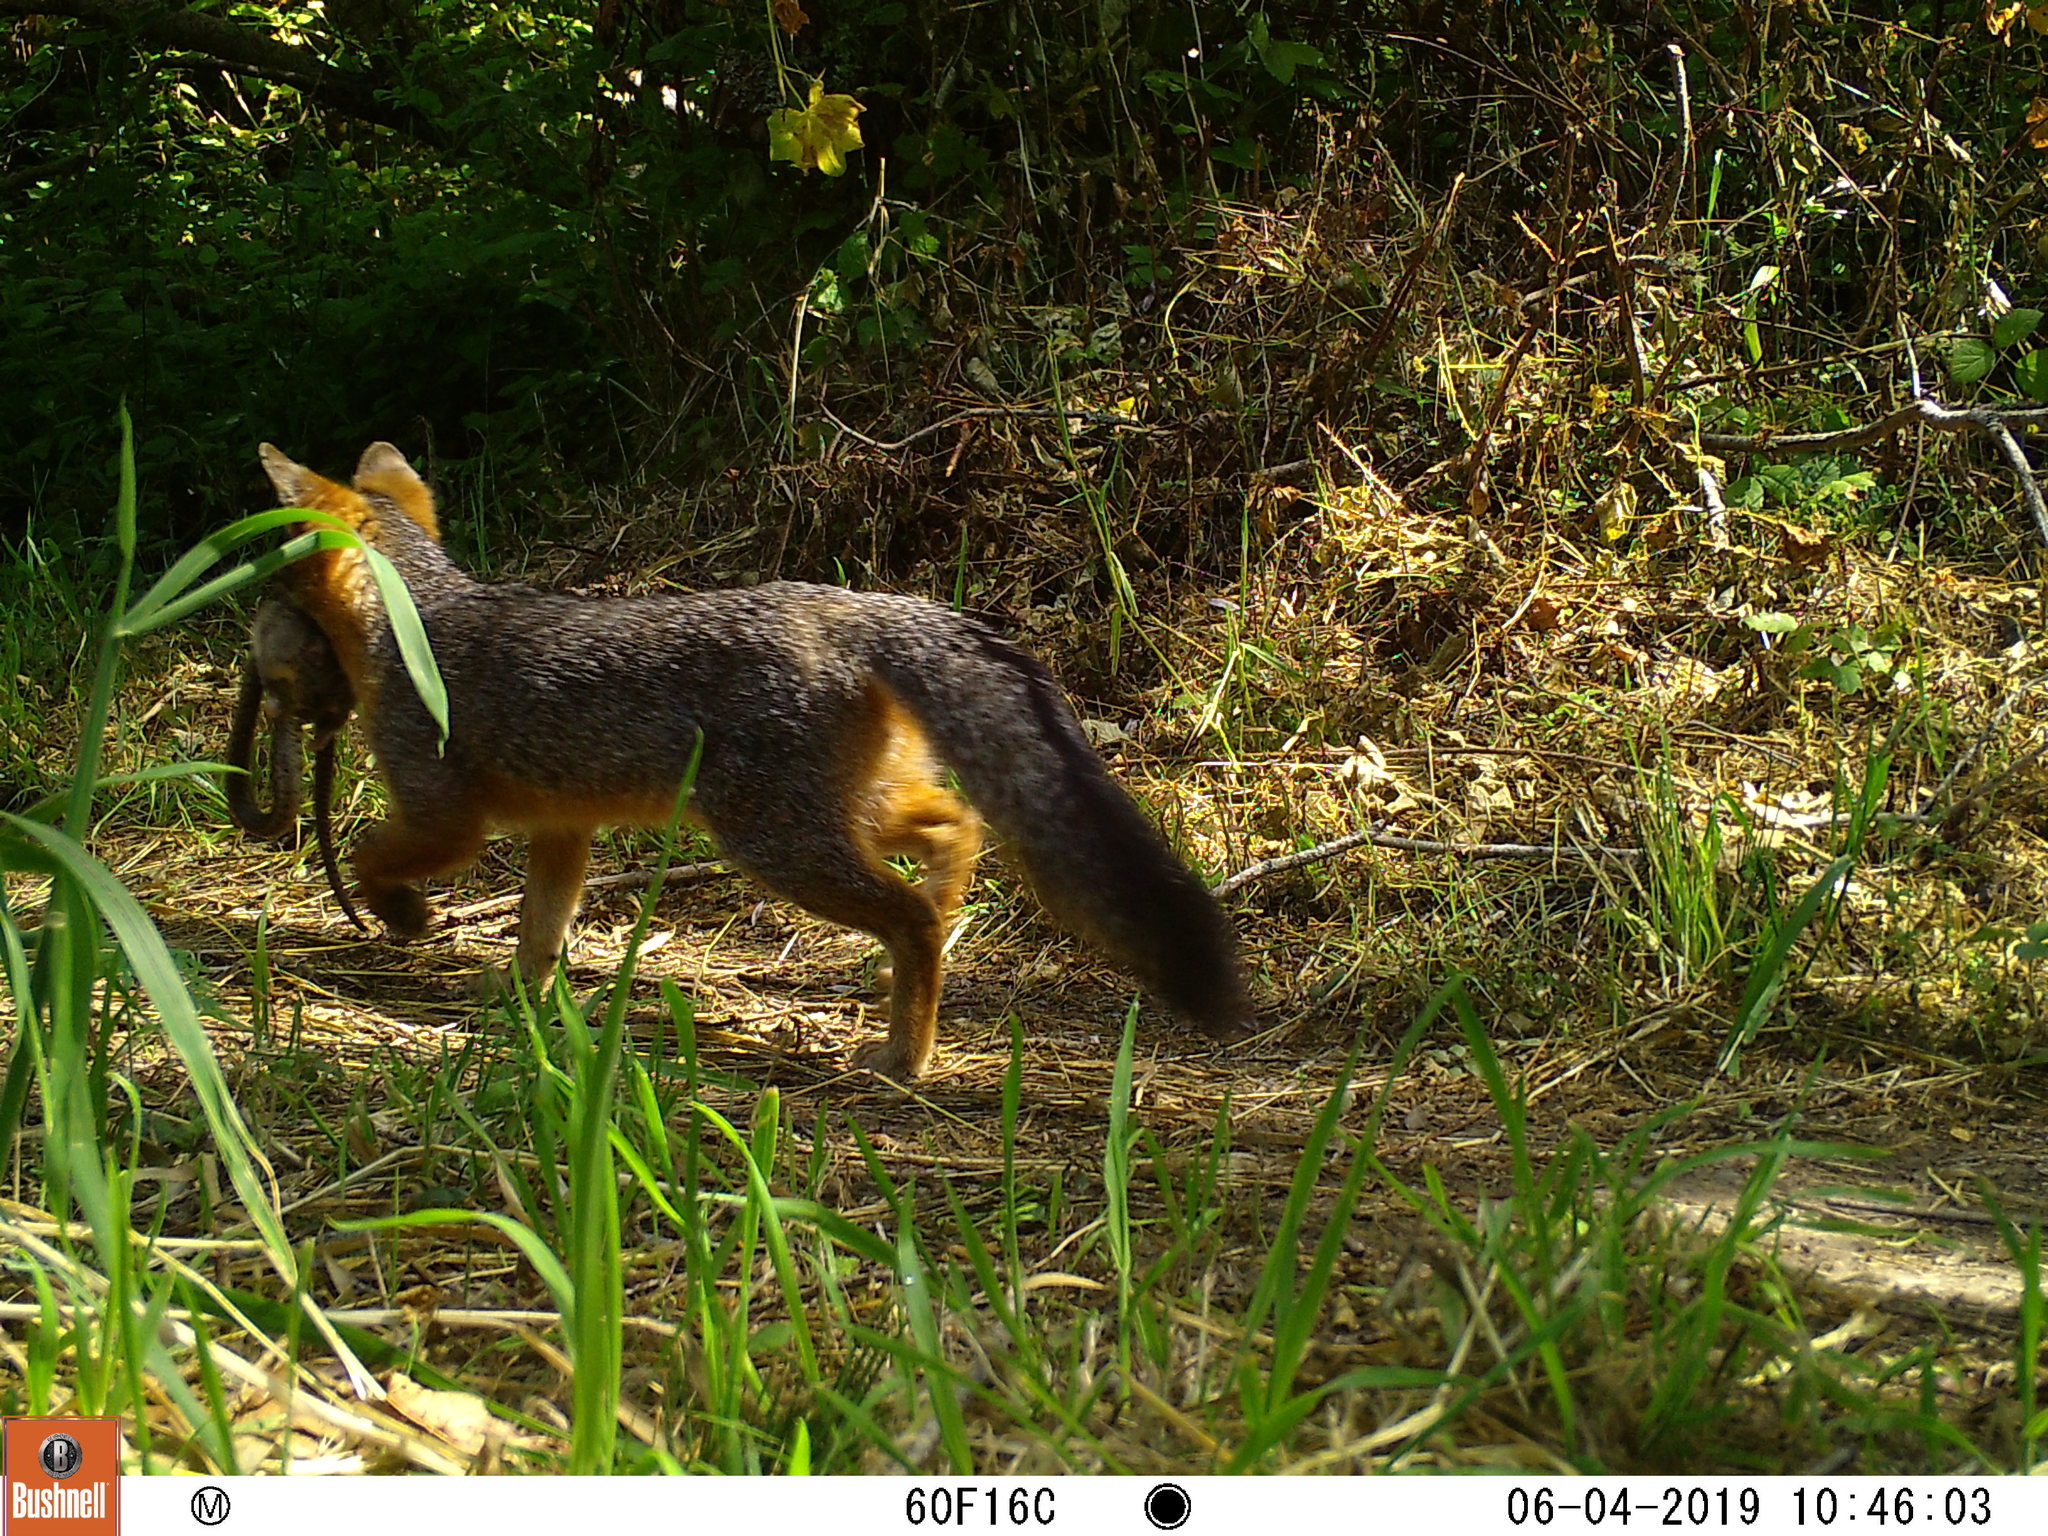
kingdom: Animalia
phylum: Chordata
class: Mammalia
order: Carnivora
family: Canidae
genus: Urocyon
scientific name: Urocyon cinereoargenteus
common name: Gray fox
